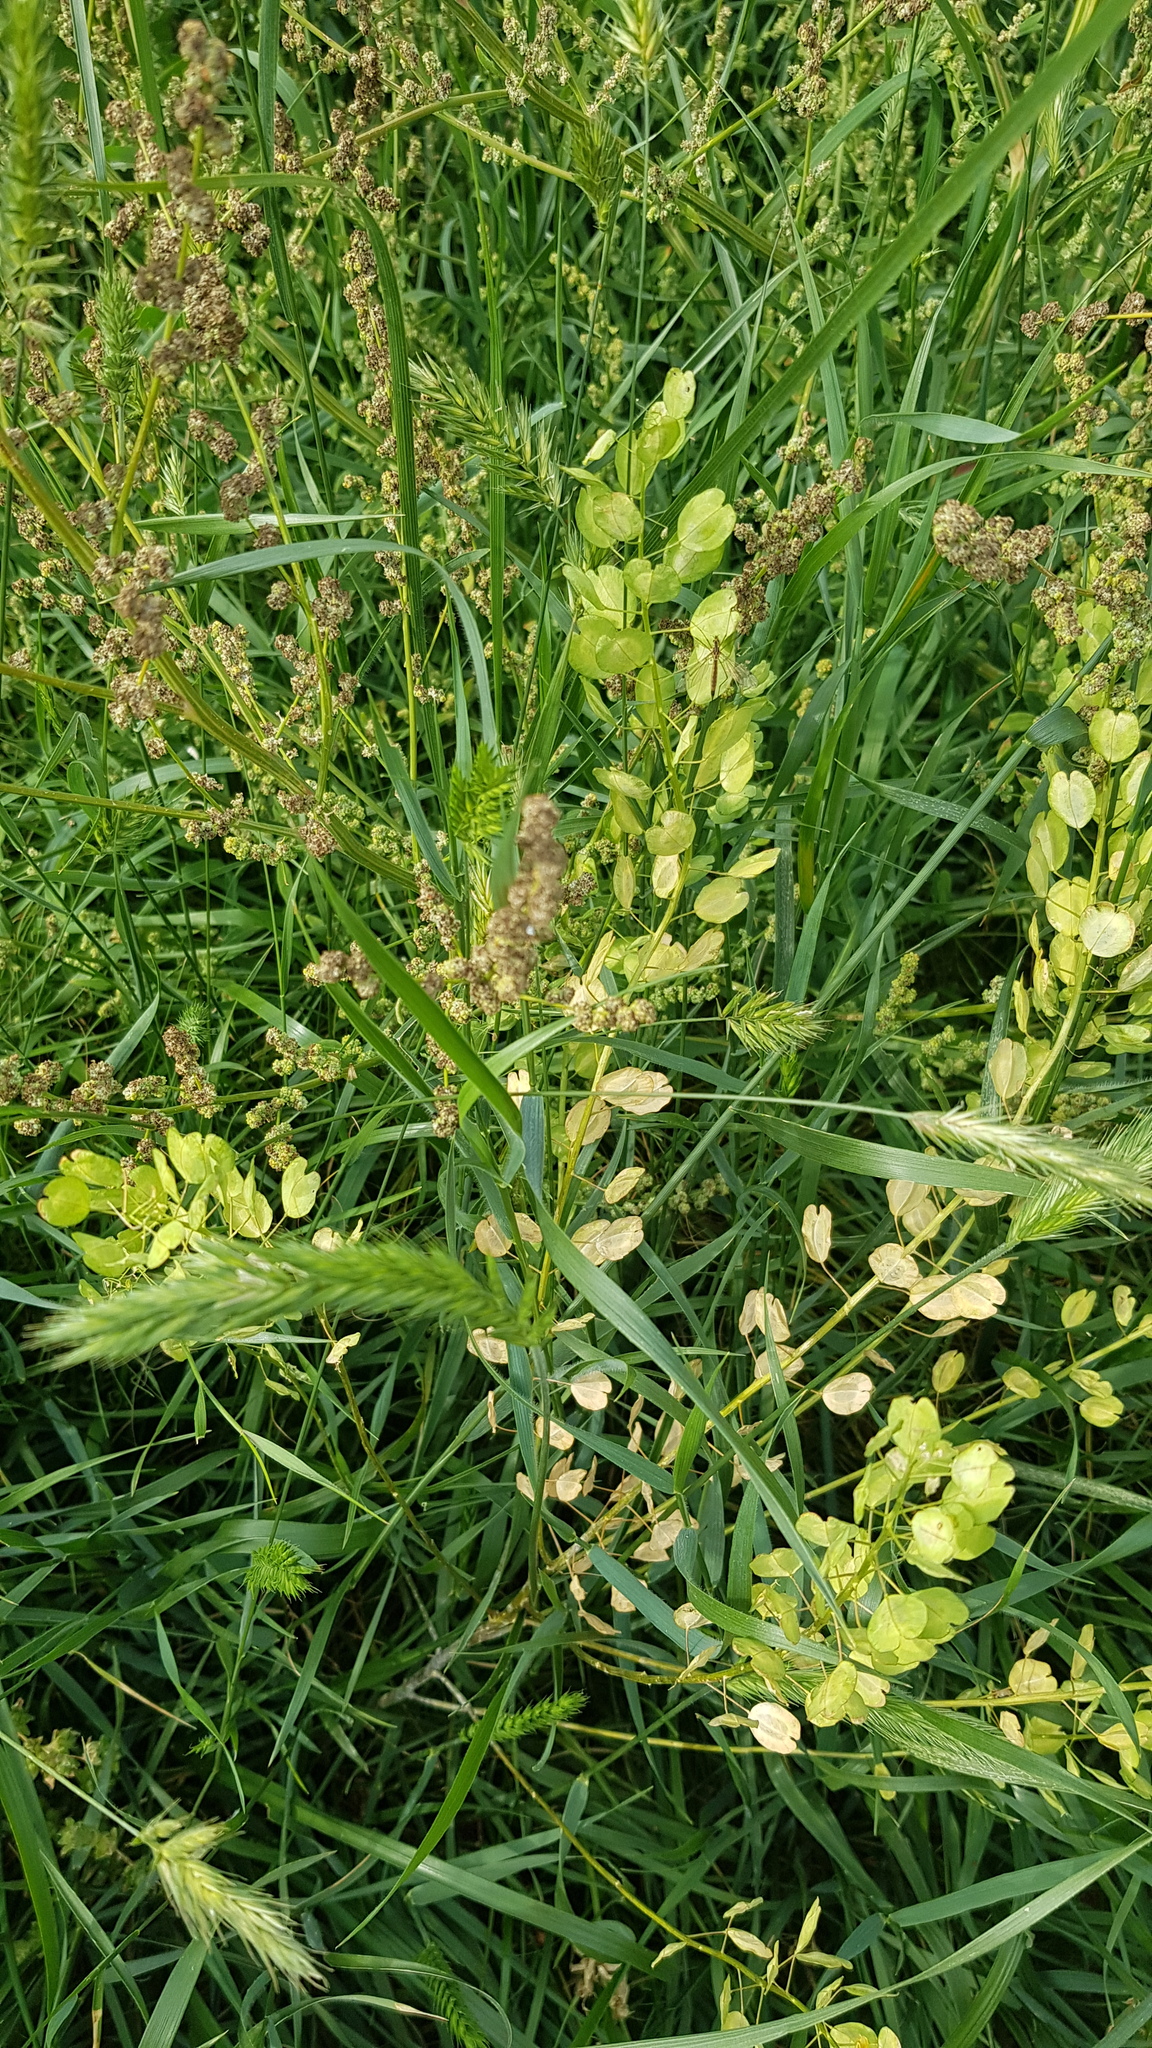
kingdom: Plantae
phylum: Tracheophyta
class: Magnoliopsida
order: Brassicales
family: Brassicaceae
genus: Thlaspi
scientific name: Thlaspi arvense
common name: Field pennycress
